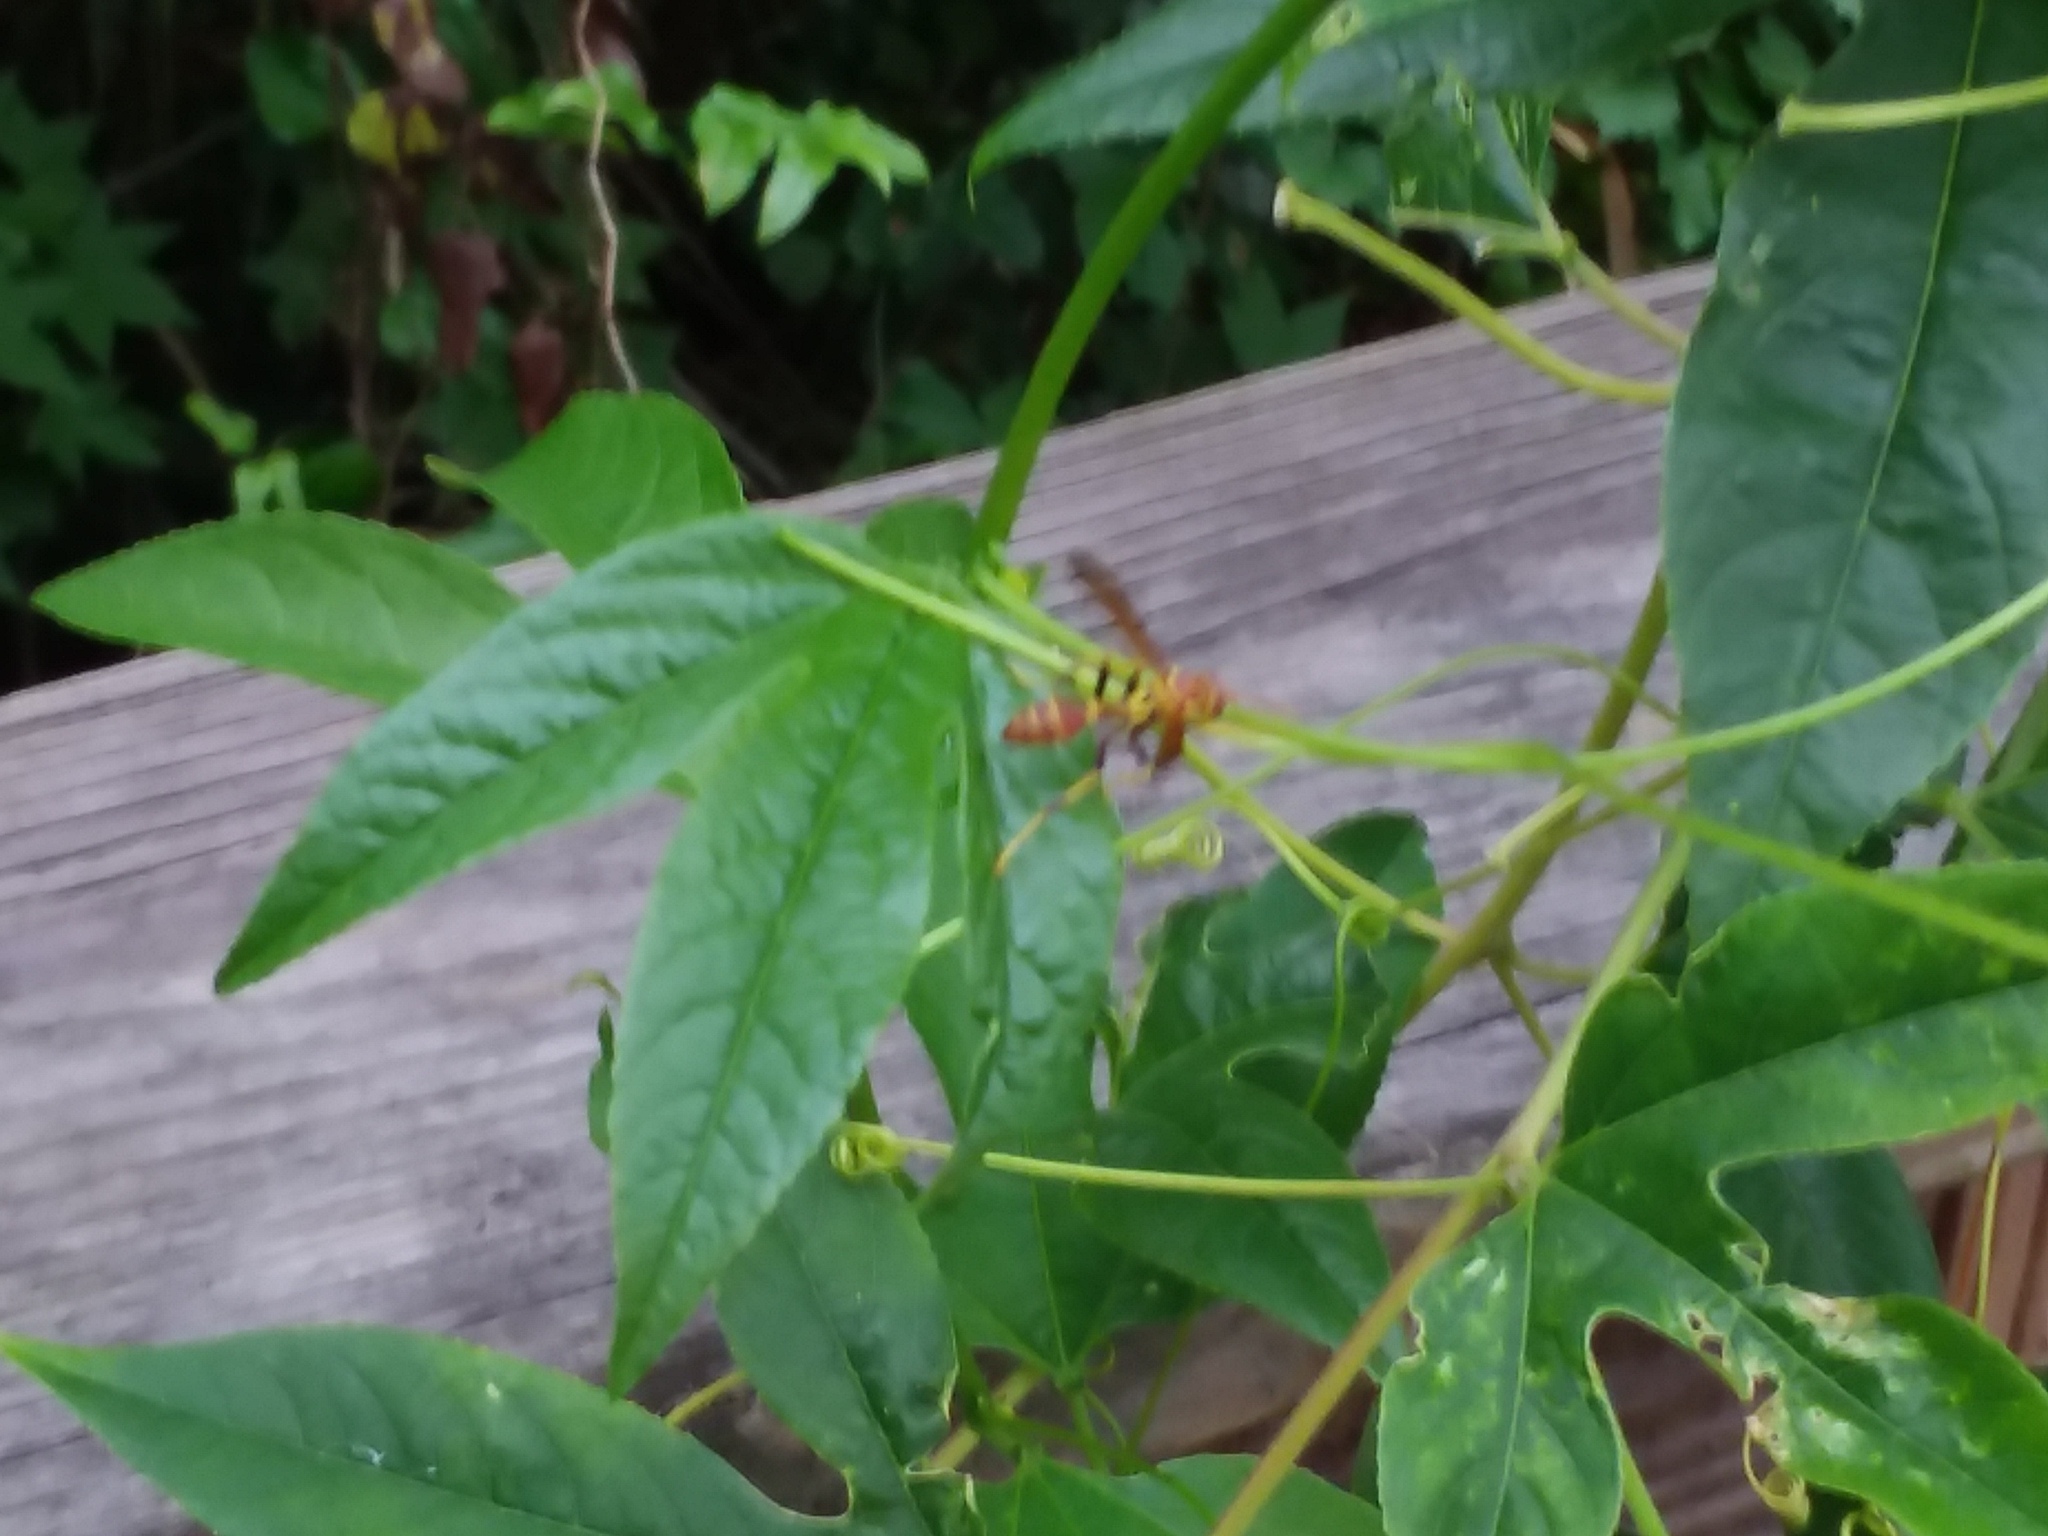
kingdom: Animalia
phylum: Arthropoda
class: Insecta
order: Hymenoptera
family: Vespidae
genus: Mischocyttarus
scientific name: Mischocyttarus mexicanus
